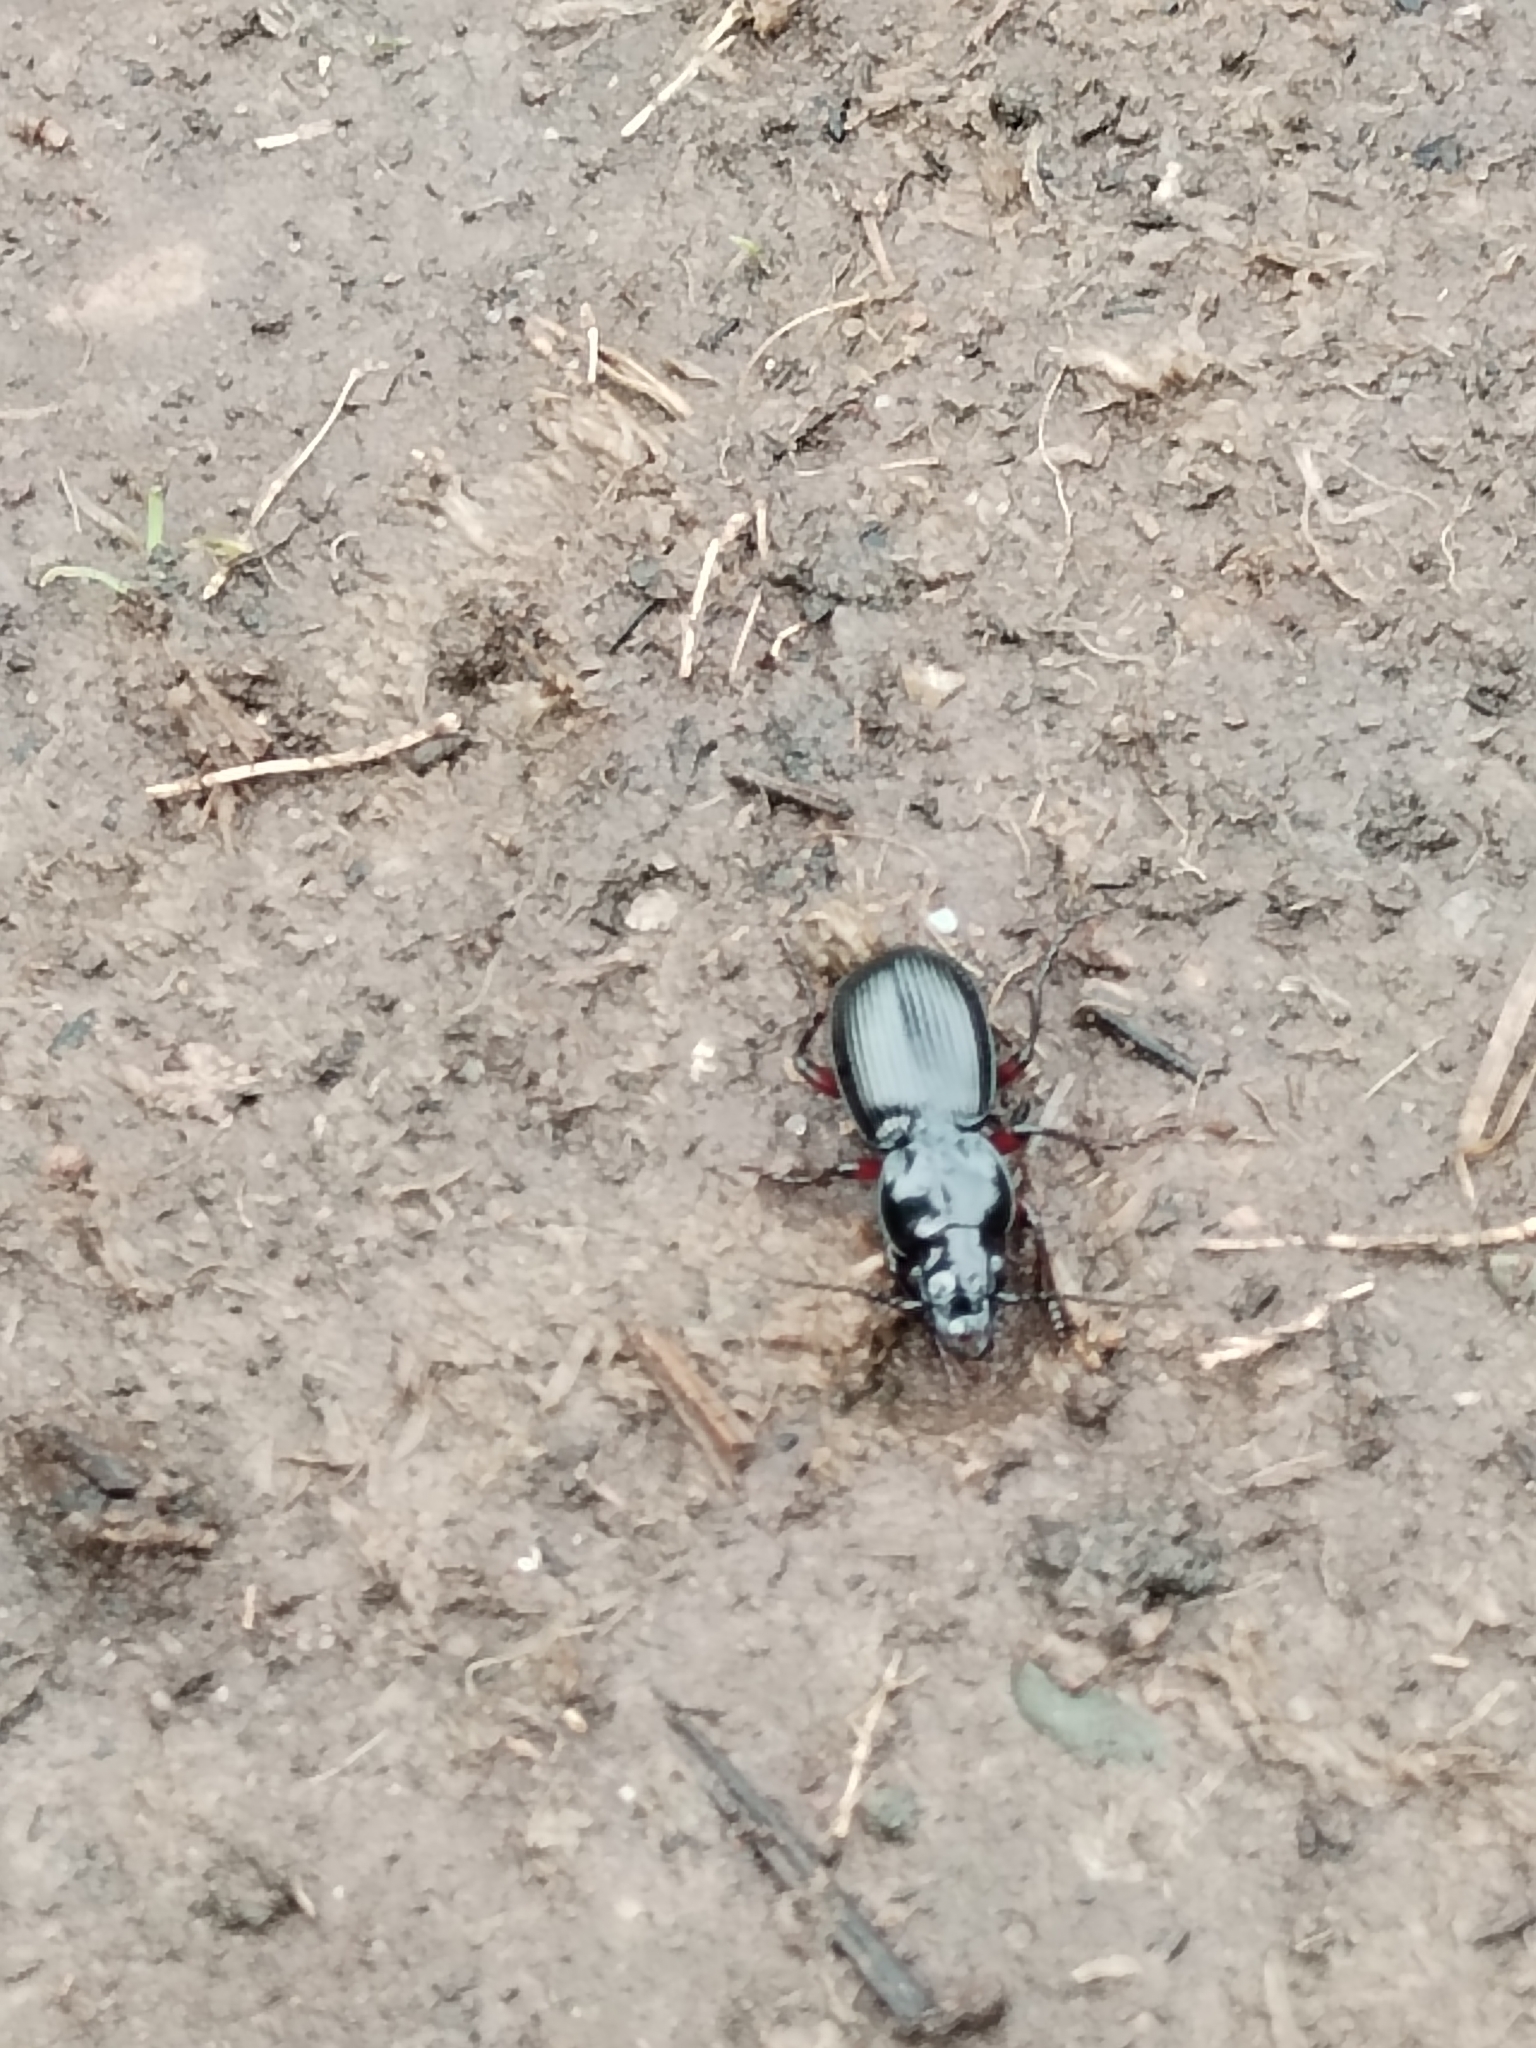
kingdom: Animalia
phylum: Arthropoda
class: Insecta
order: Coleoptera
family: Carabidae
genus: Pterostichus
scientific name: Pterostichus madidus
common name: Black clock
